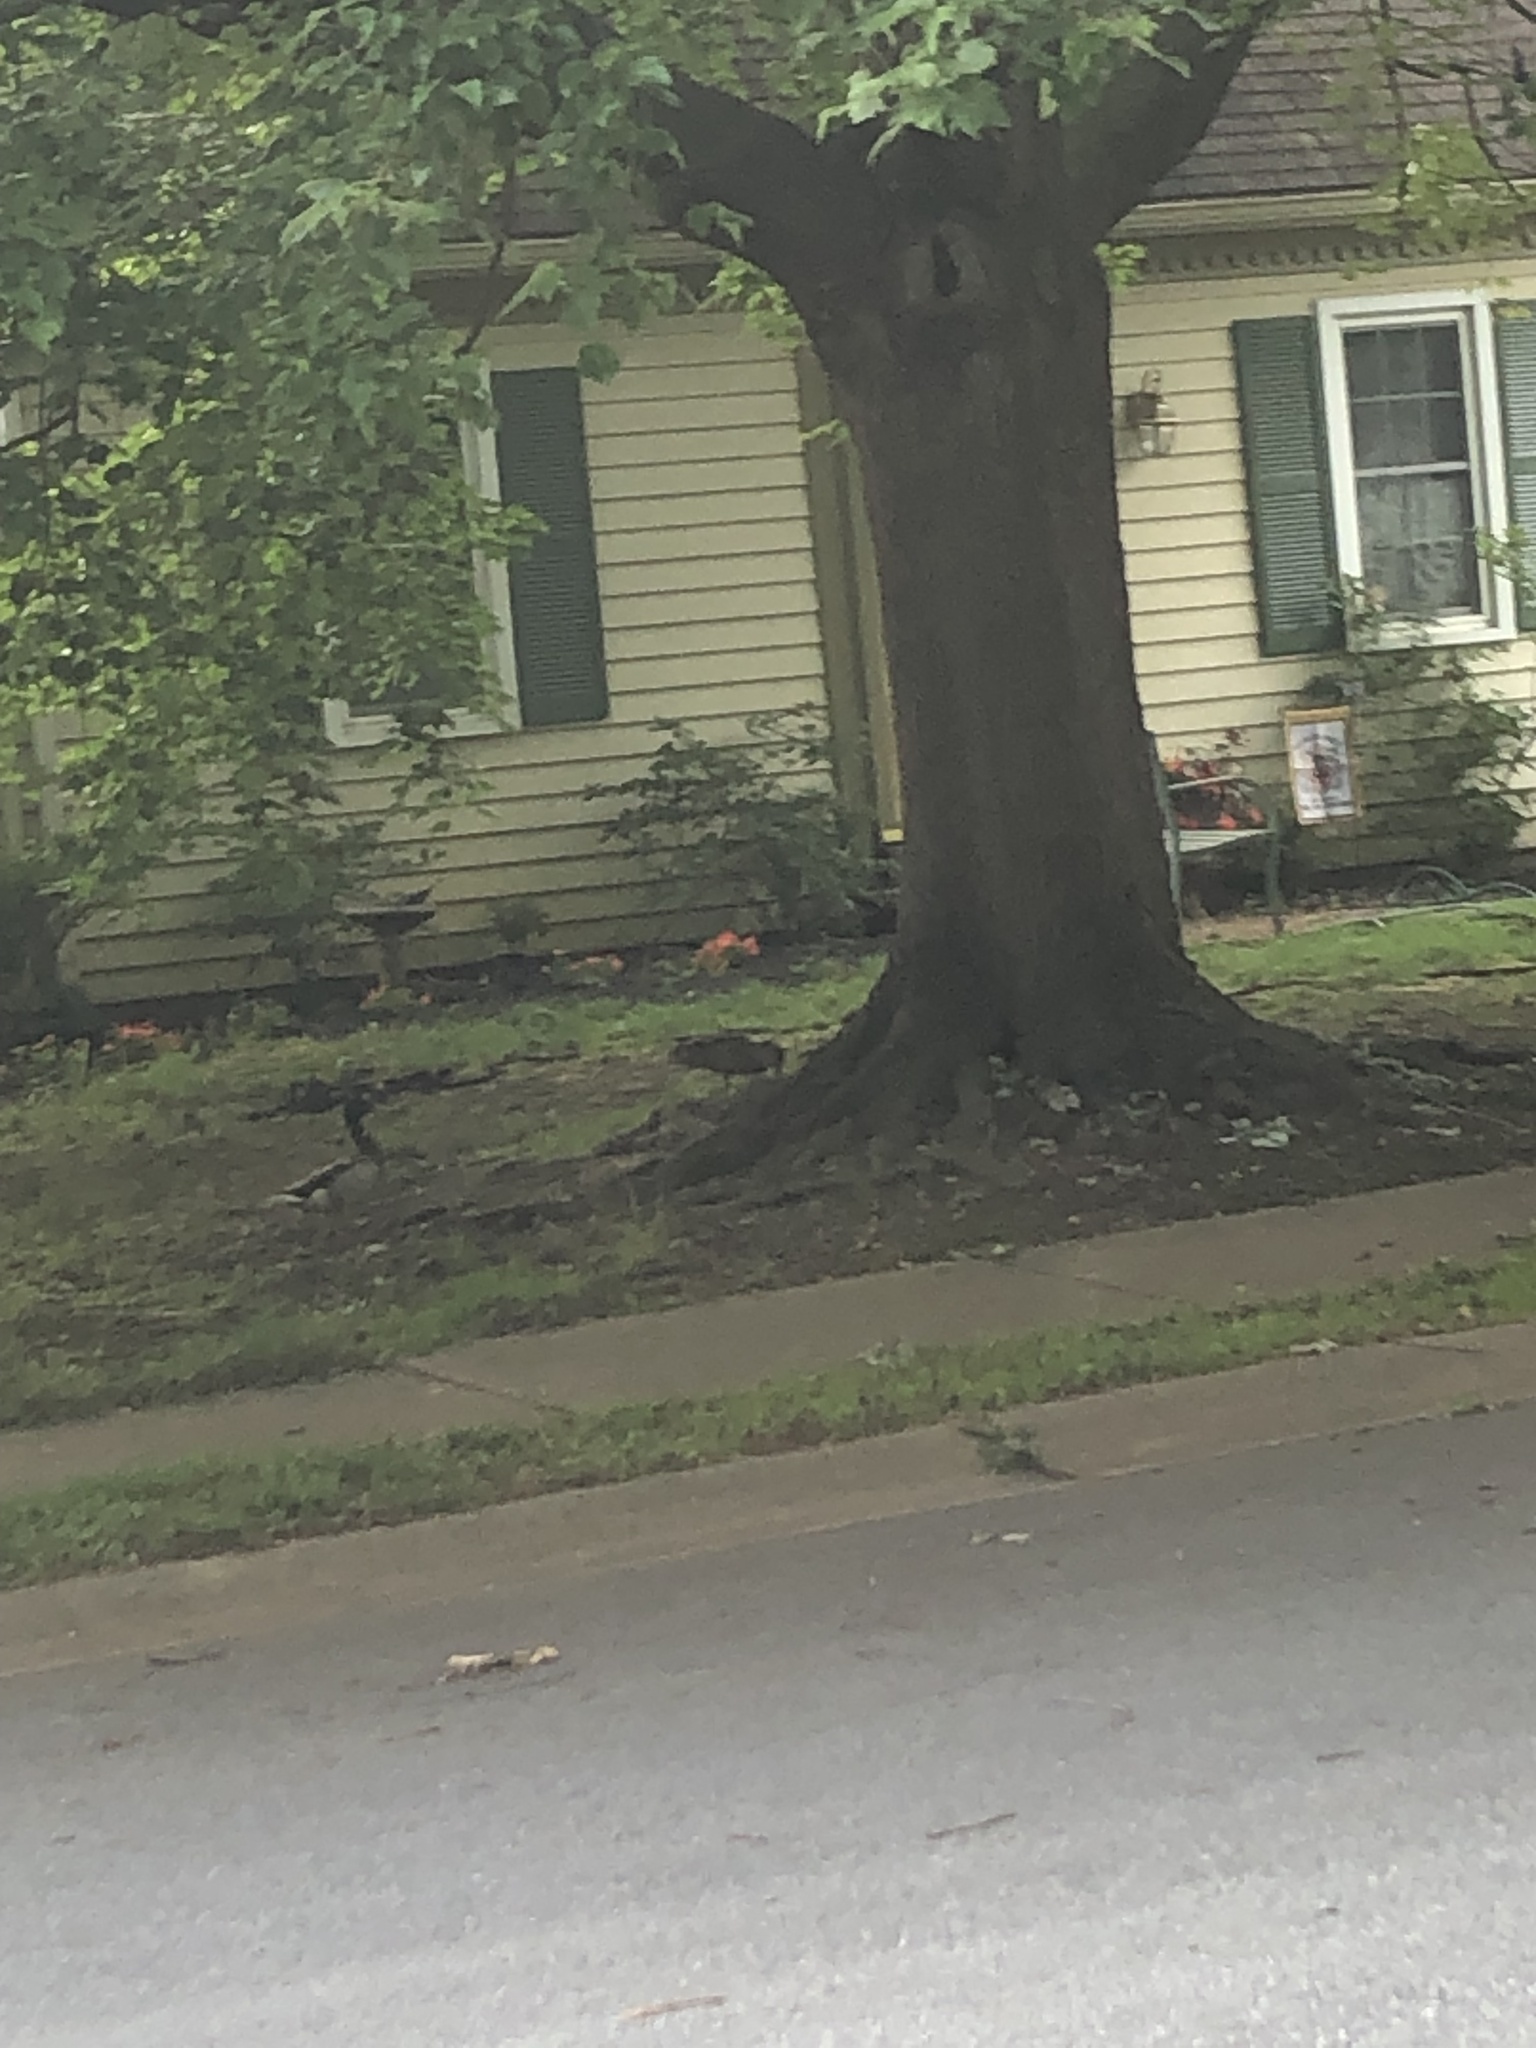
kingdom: Animalia
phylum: Chordata
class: Aves
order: Anseriformes
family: Anatidae
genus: Anas
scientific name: Anas platyrhynchos
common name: Mallard
